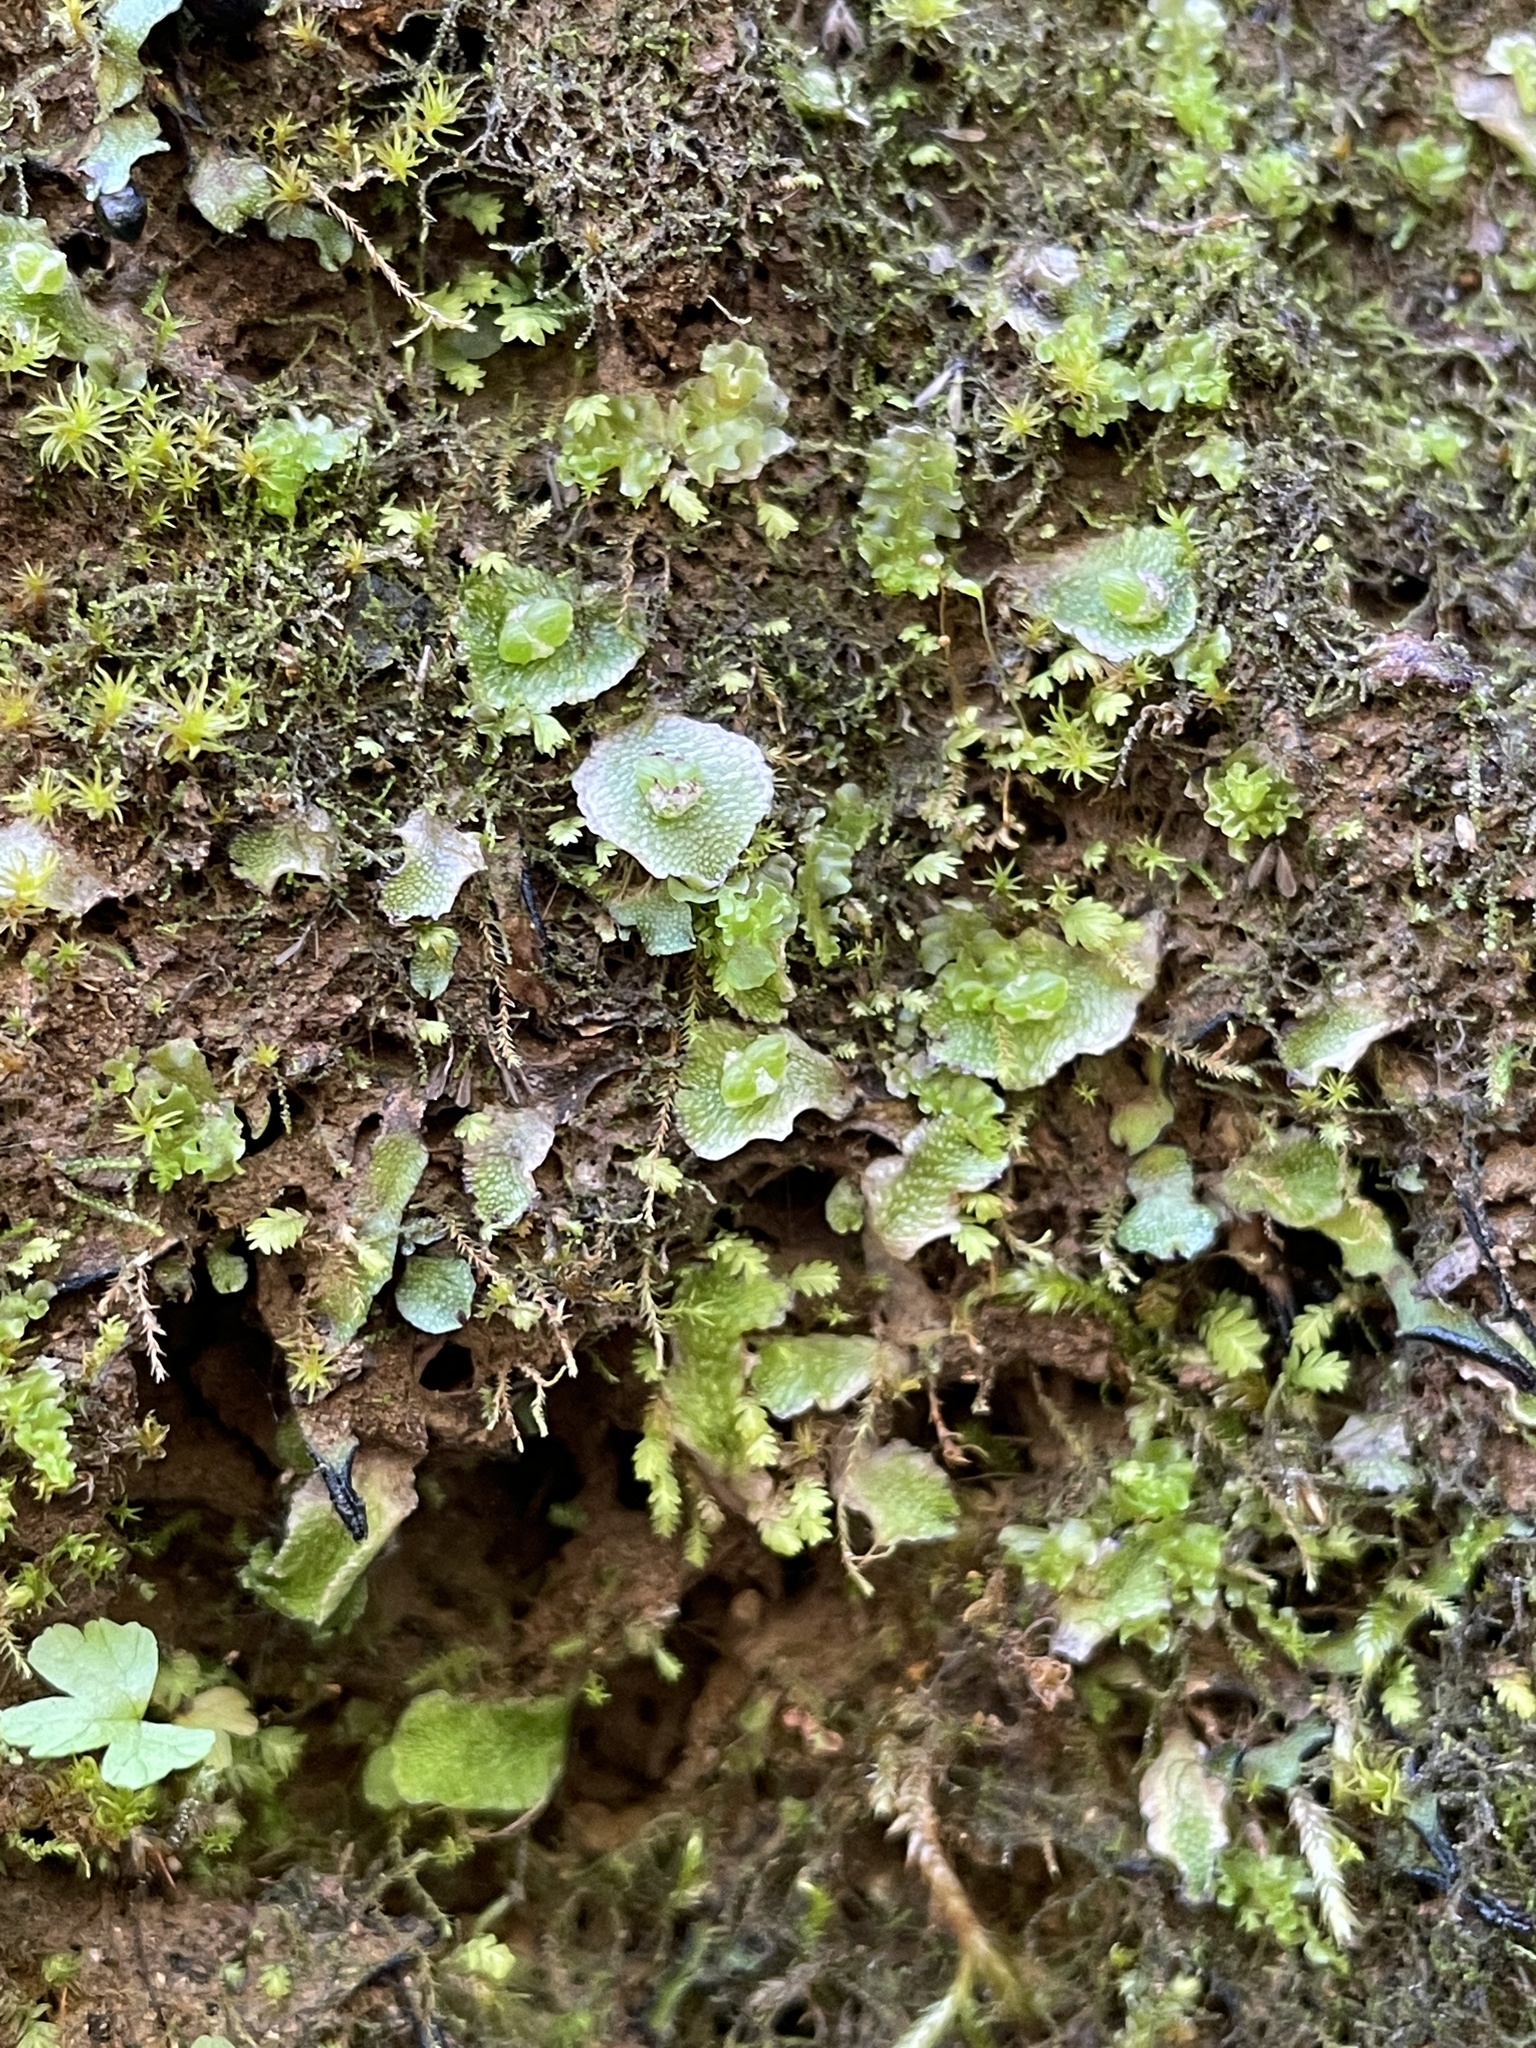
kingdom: Plantae
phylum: Marchantiophyta
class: Marchantiopsida
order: Marchantiales
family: Cleveaceae
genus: Clevea
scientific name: Clevea hyalina
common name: Hyaline liverwort
